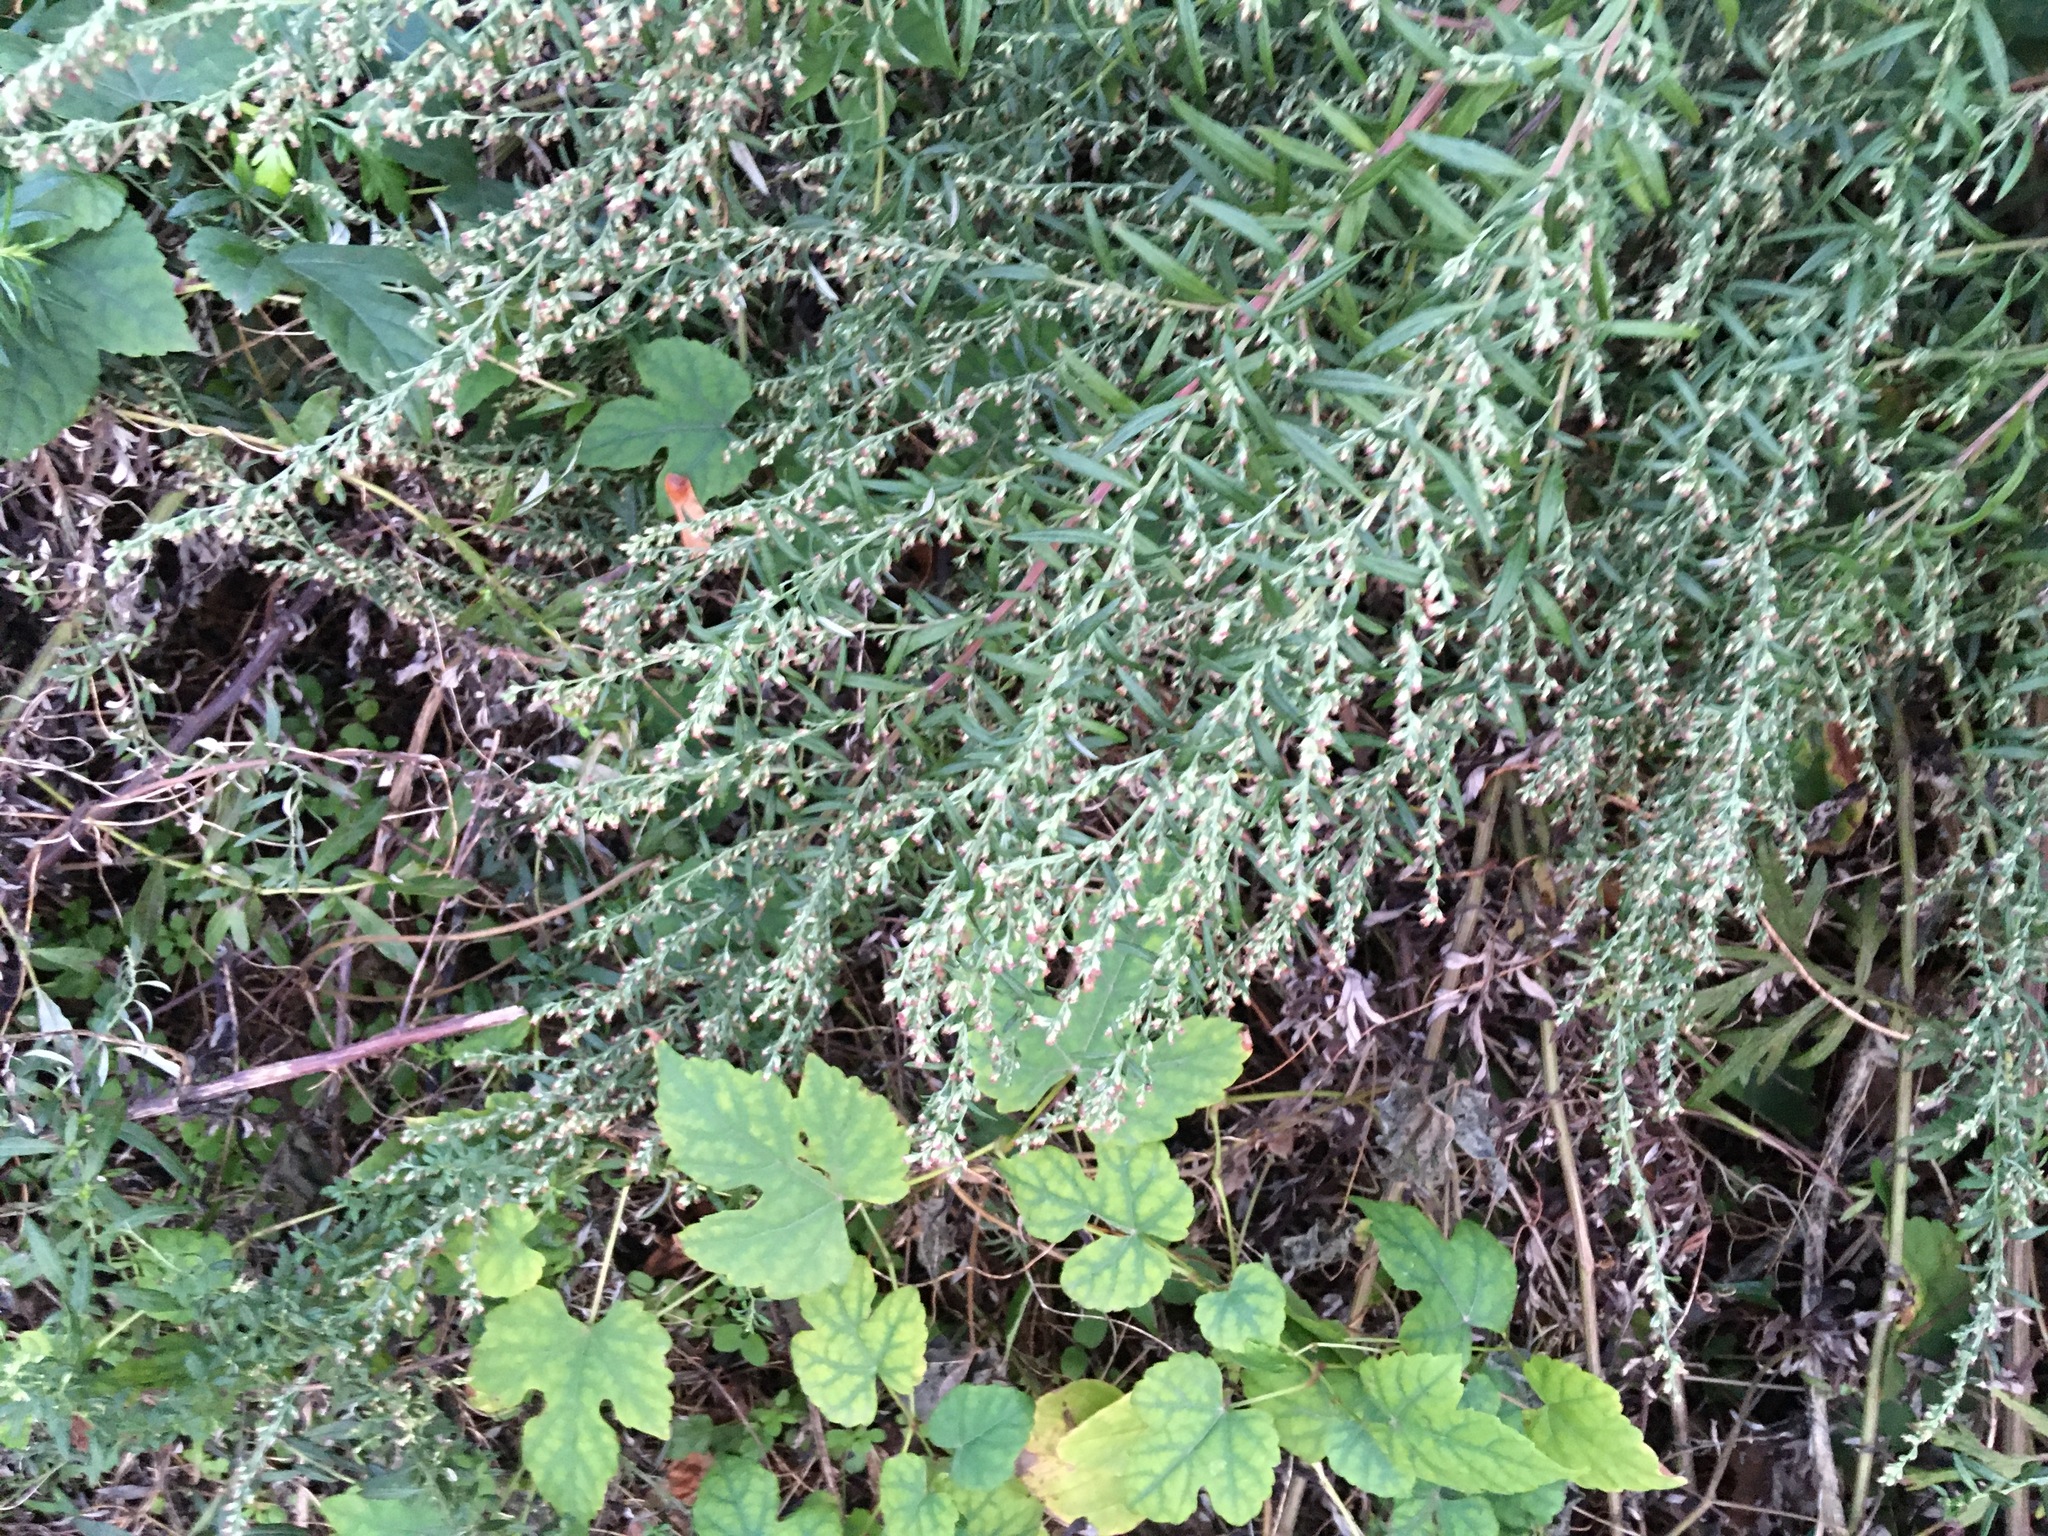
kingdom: Plantae
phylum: Tracheophyta
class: Magnoliopsida
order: Asterales
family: Asteraceae
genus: Artemisia
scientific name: Artemisia vulgaris
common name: Mugwort
